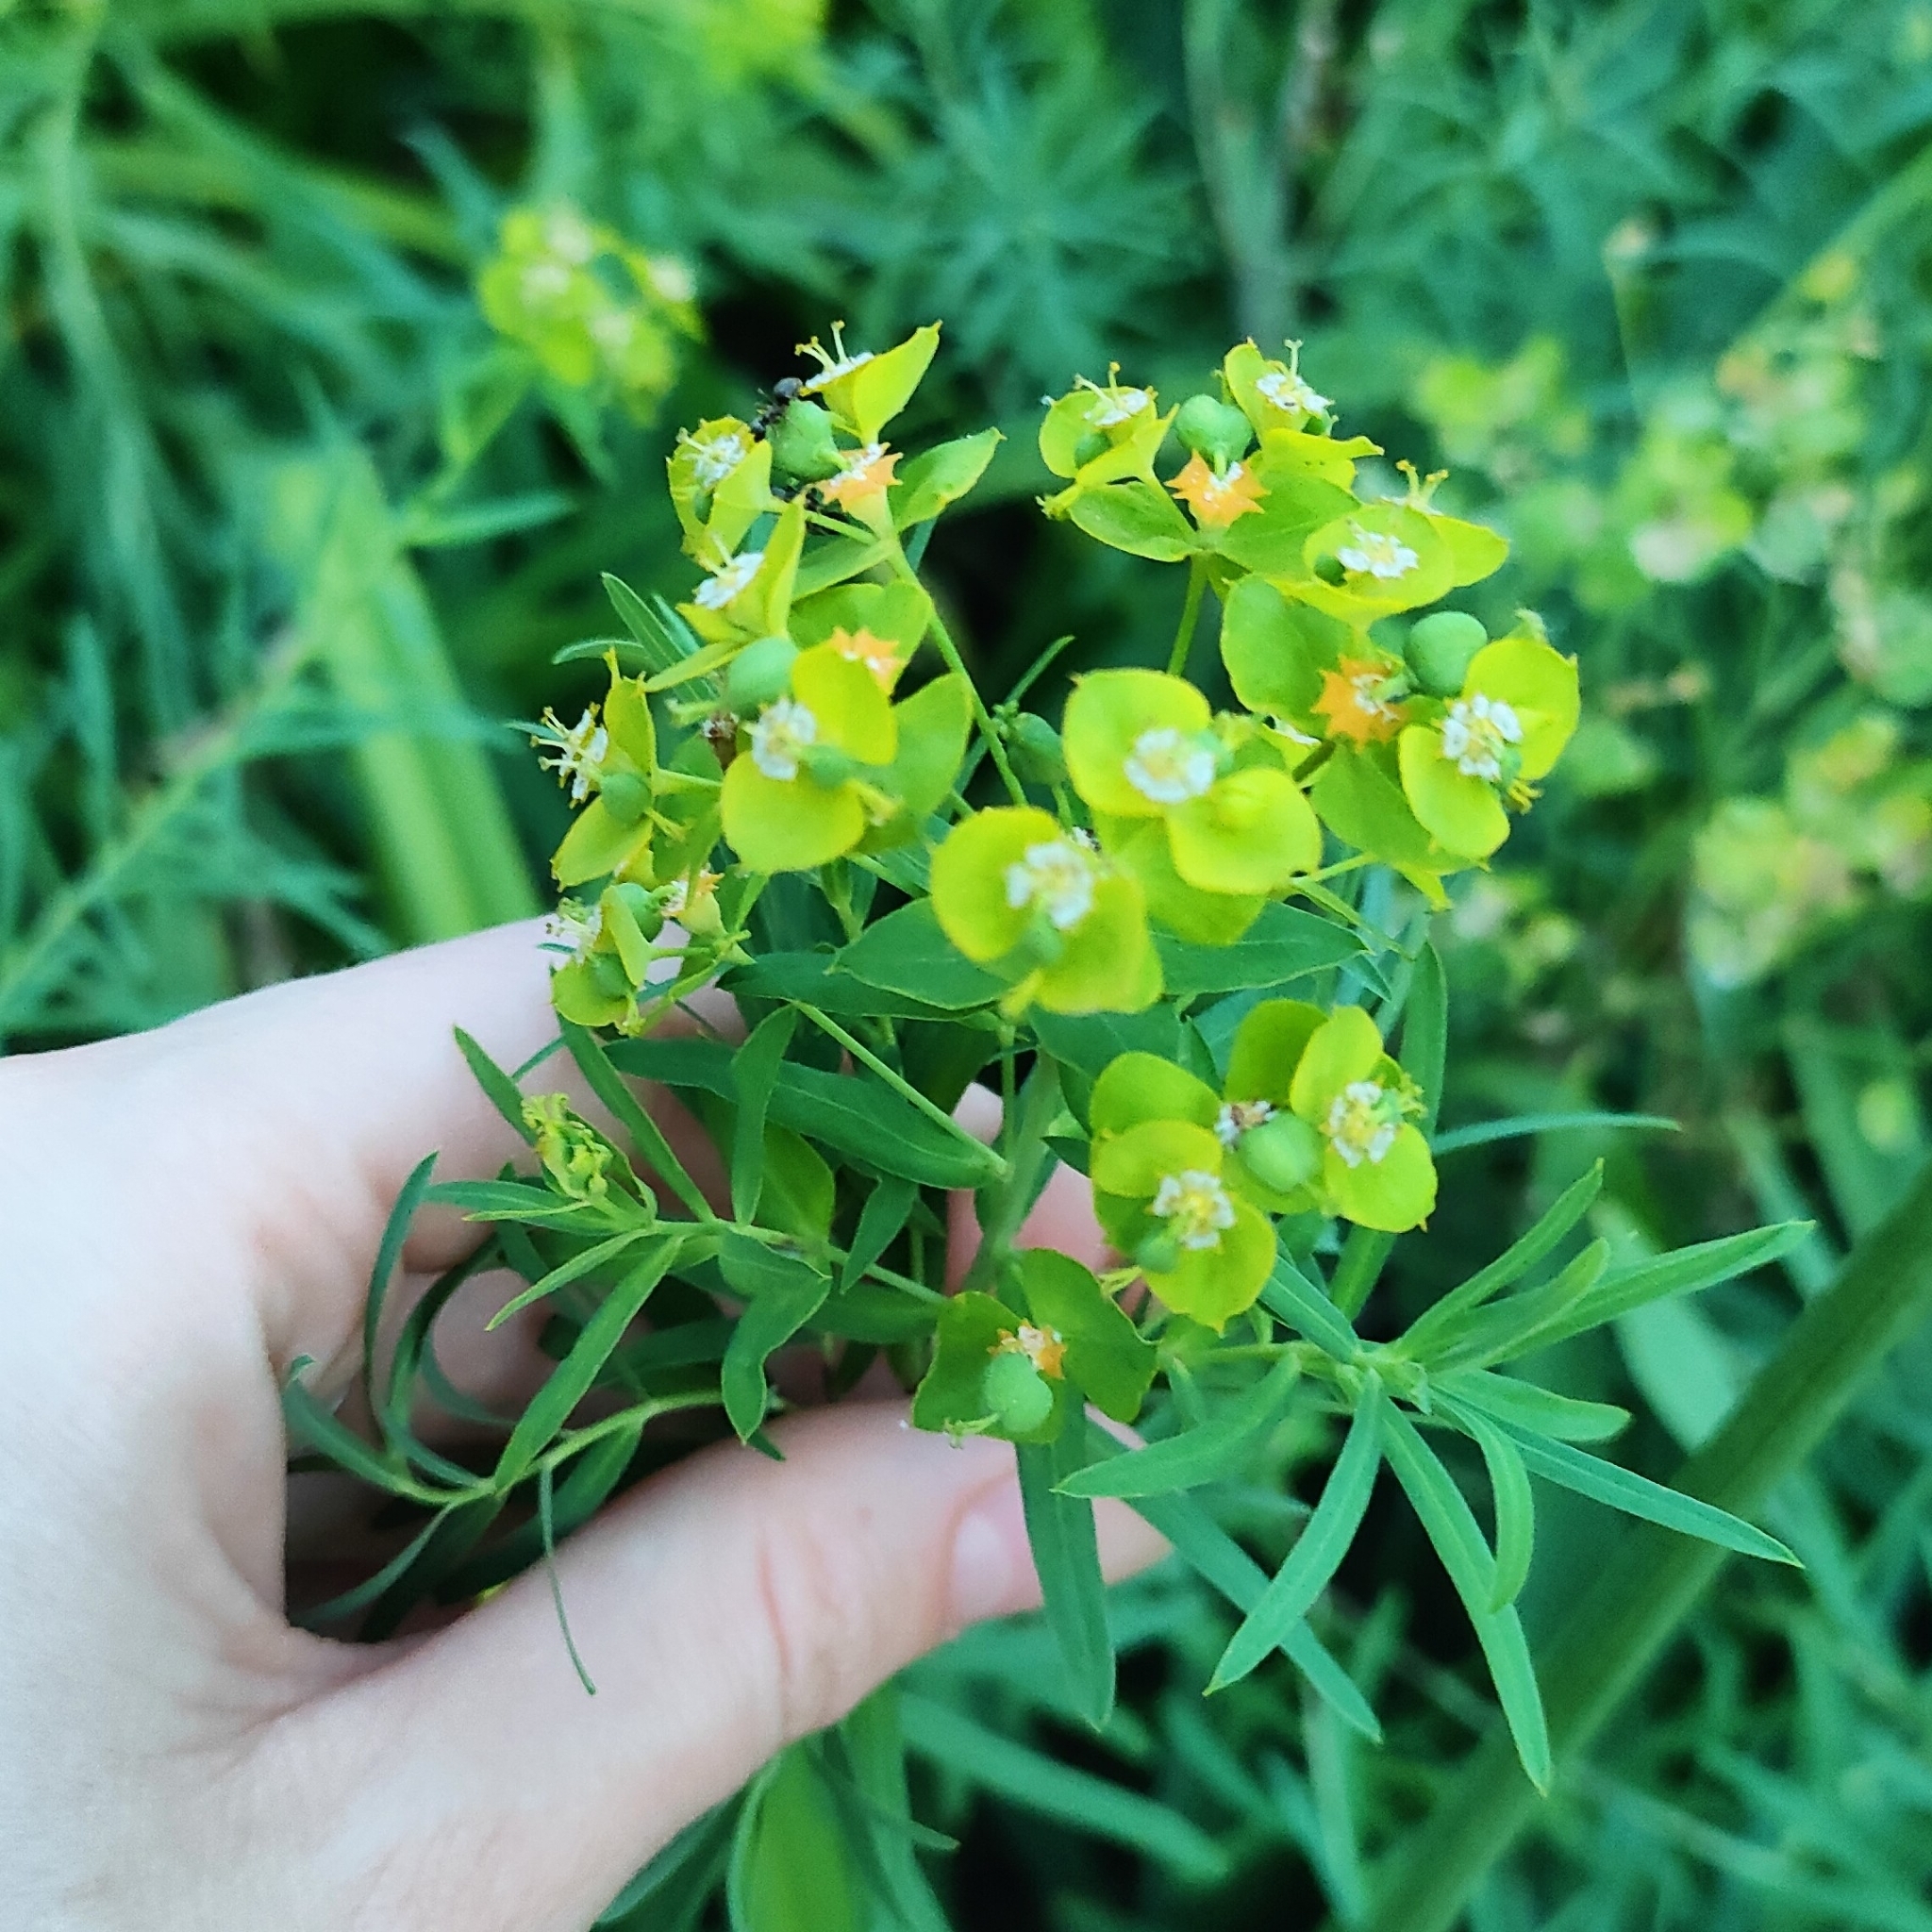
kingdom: Plantae
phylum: Tracheophyta
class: Magnoliopsida
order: Malpighiales
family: Euphorbiaceae
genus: Euphorbia
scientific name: Euphorbia virgata
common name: Leafy spurge
